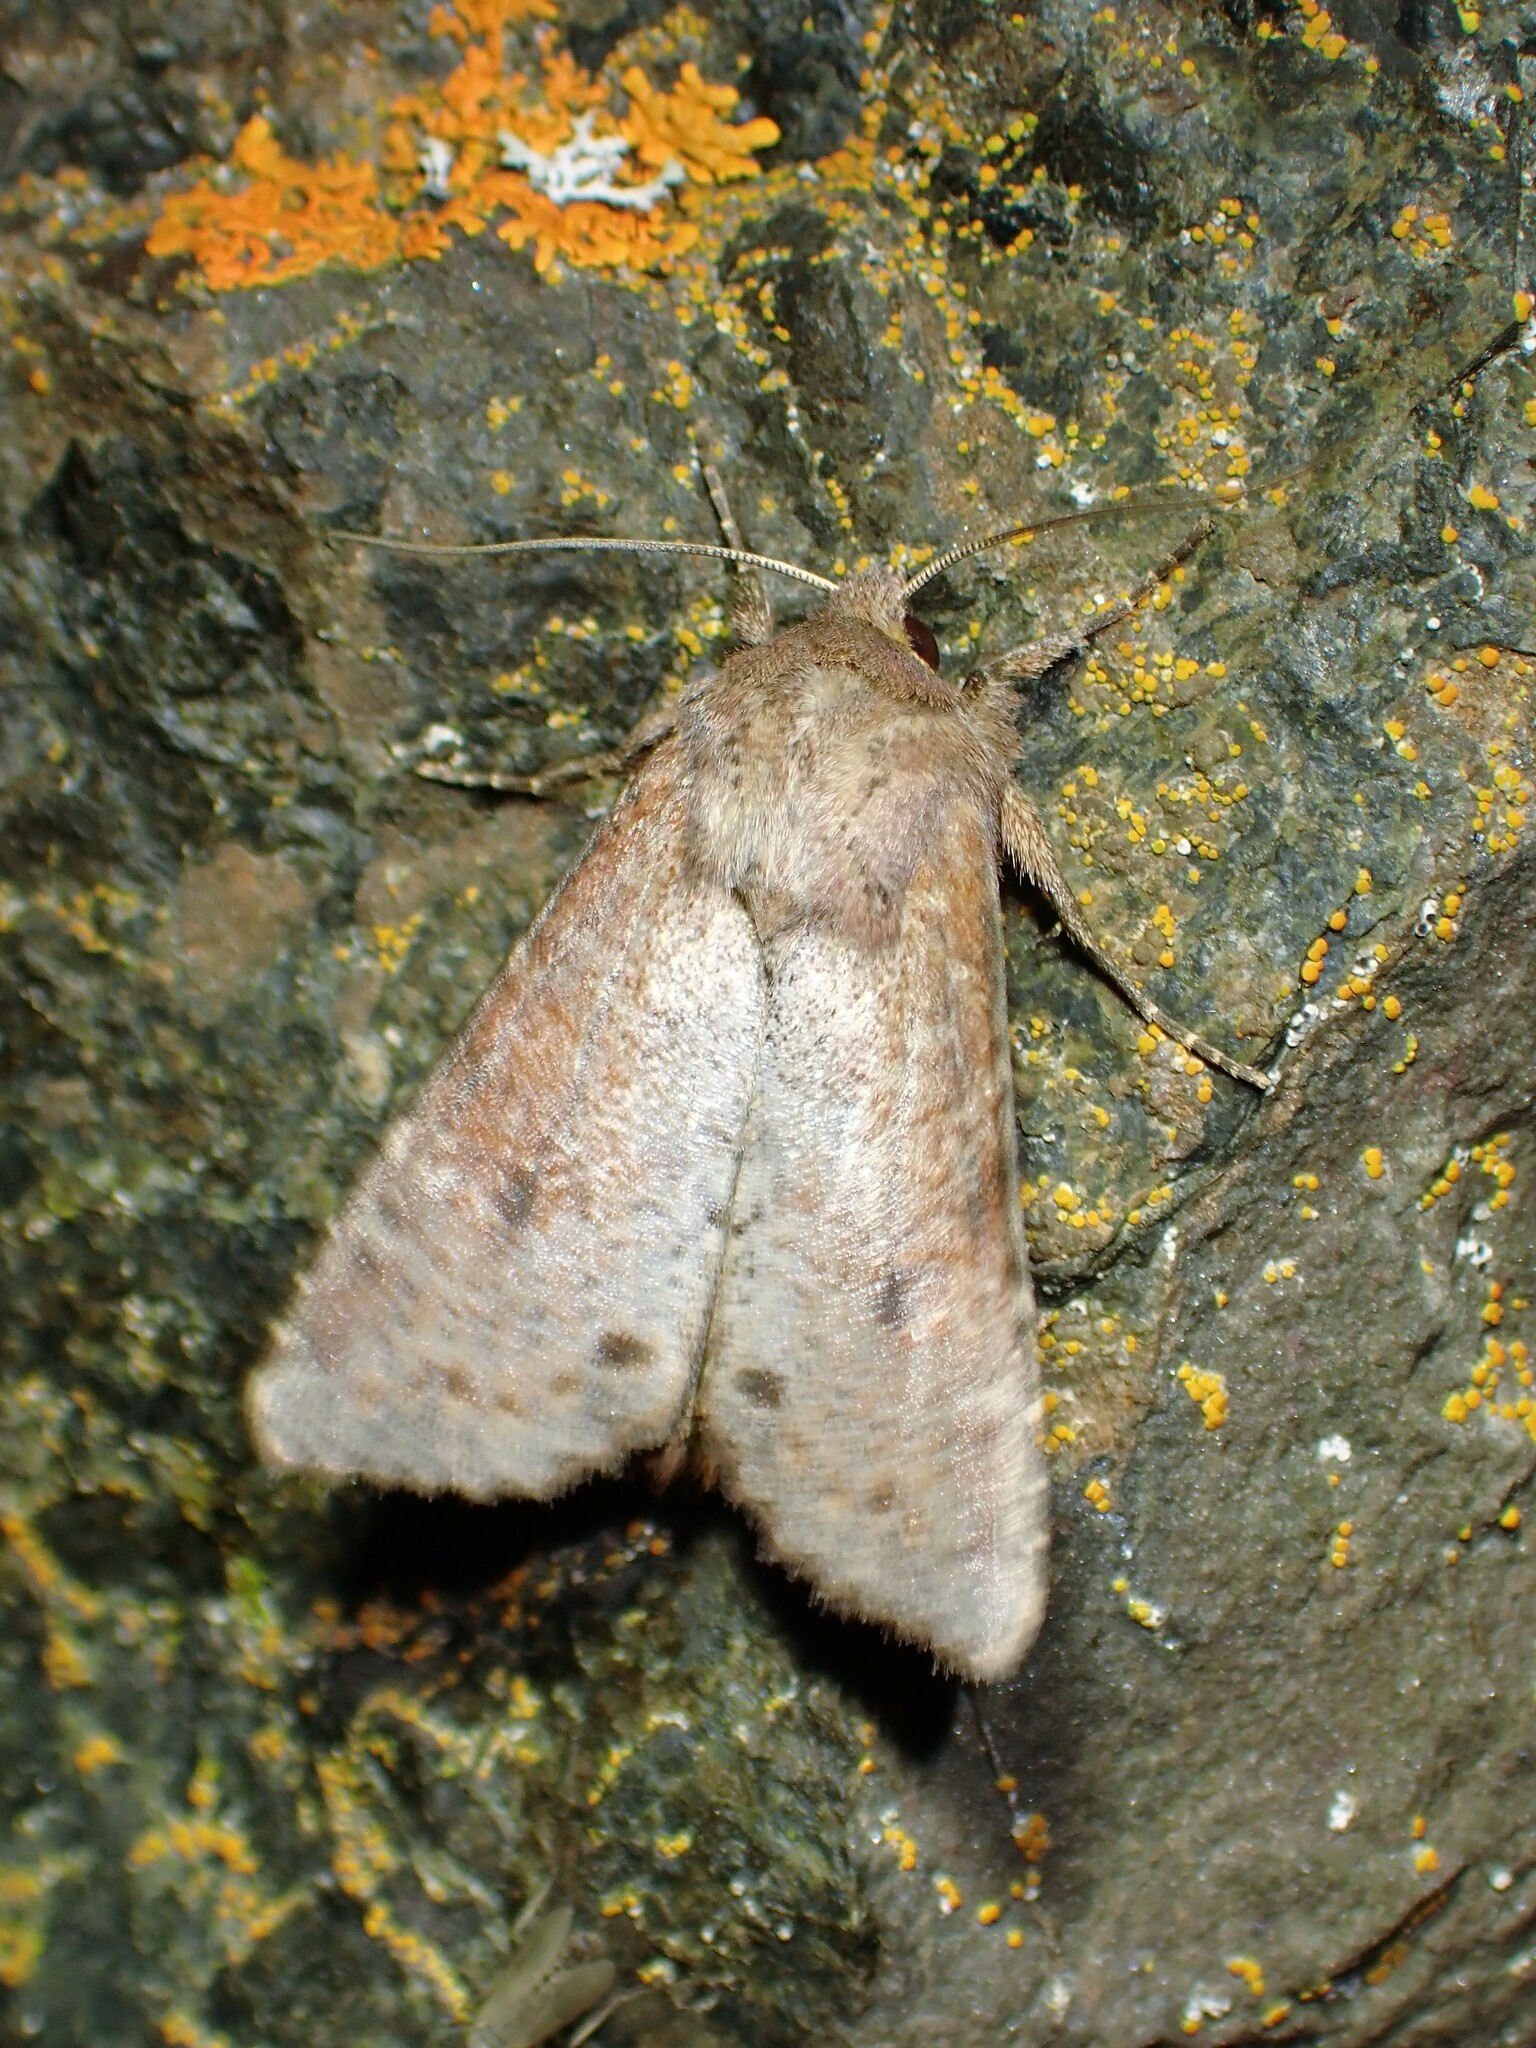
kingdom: Animalia
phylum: Arthropoda
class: Insecta
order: Lepidoptera
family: Noctuidae
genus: Apamea
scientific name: Apamea alia
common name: Fox apamea
